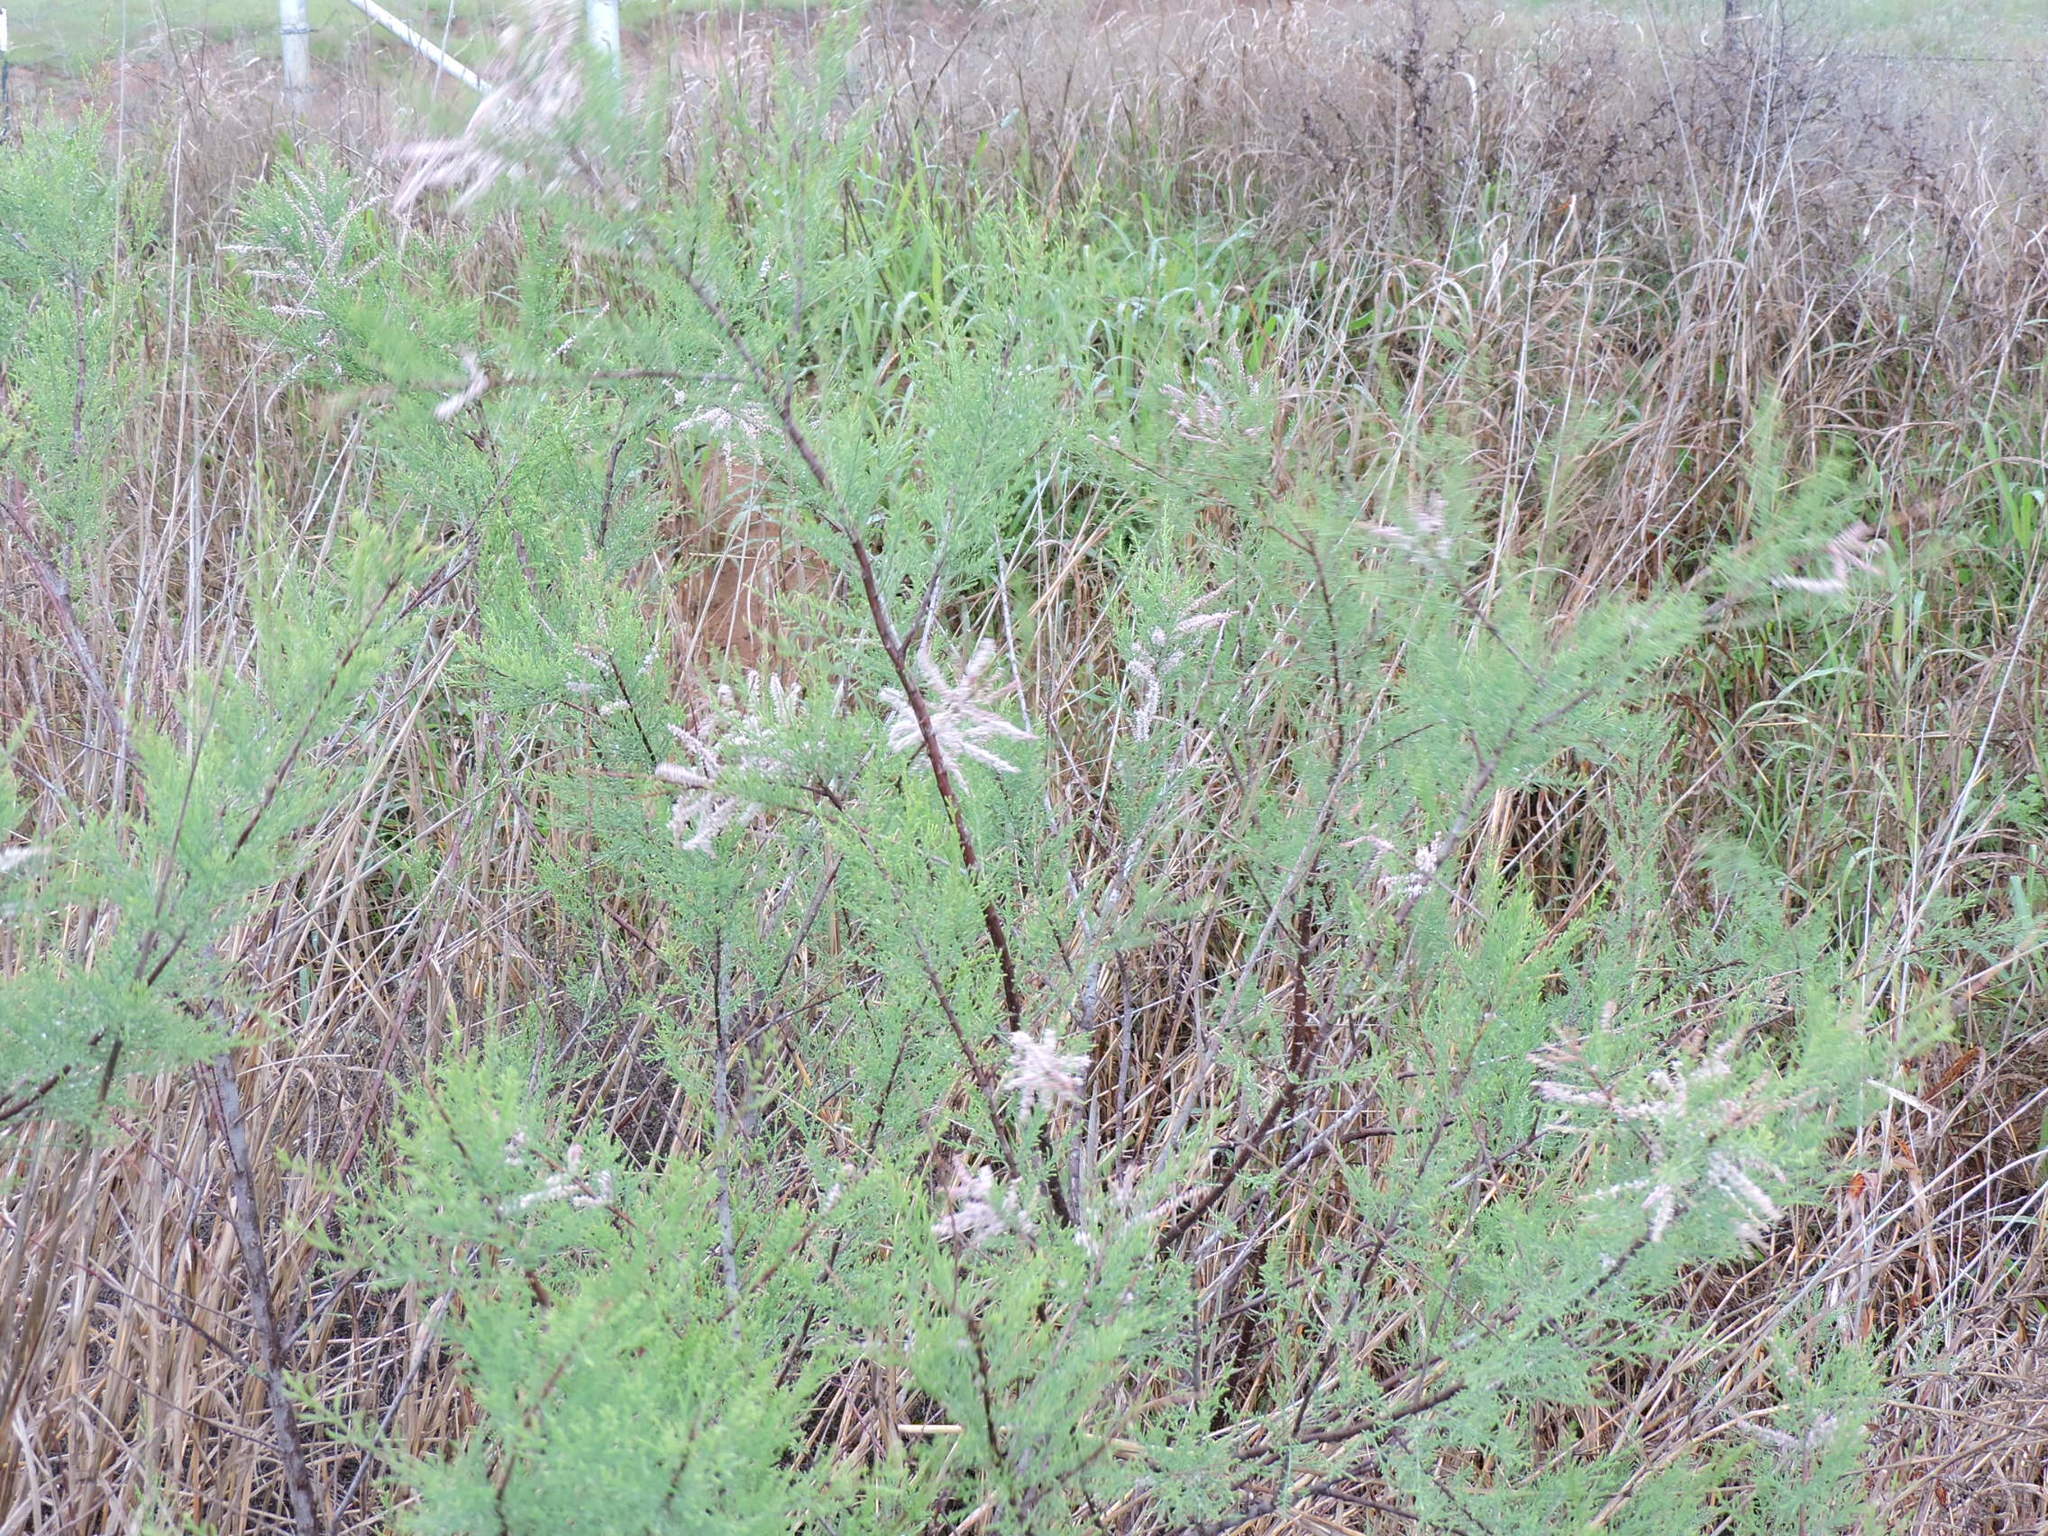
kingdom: Plantae
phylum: Tracheophyta
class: Magnoliopsida
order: Caryophyllales
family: Tamaricaceae
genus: Tamarix
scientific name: Tamarix
